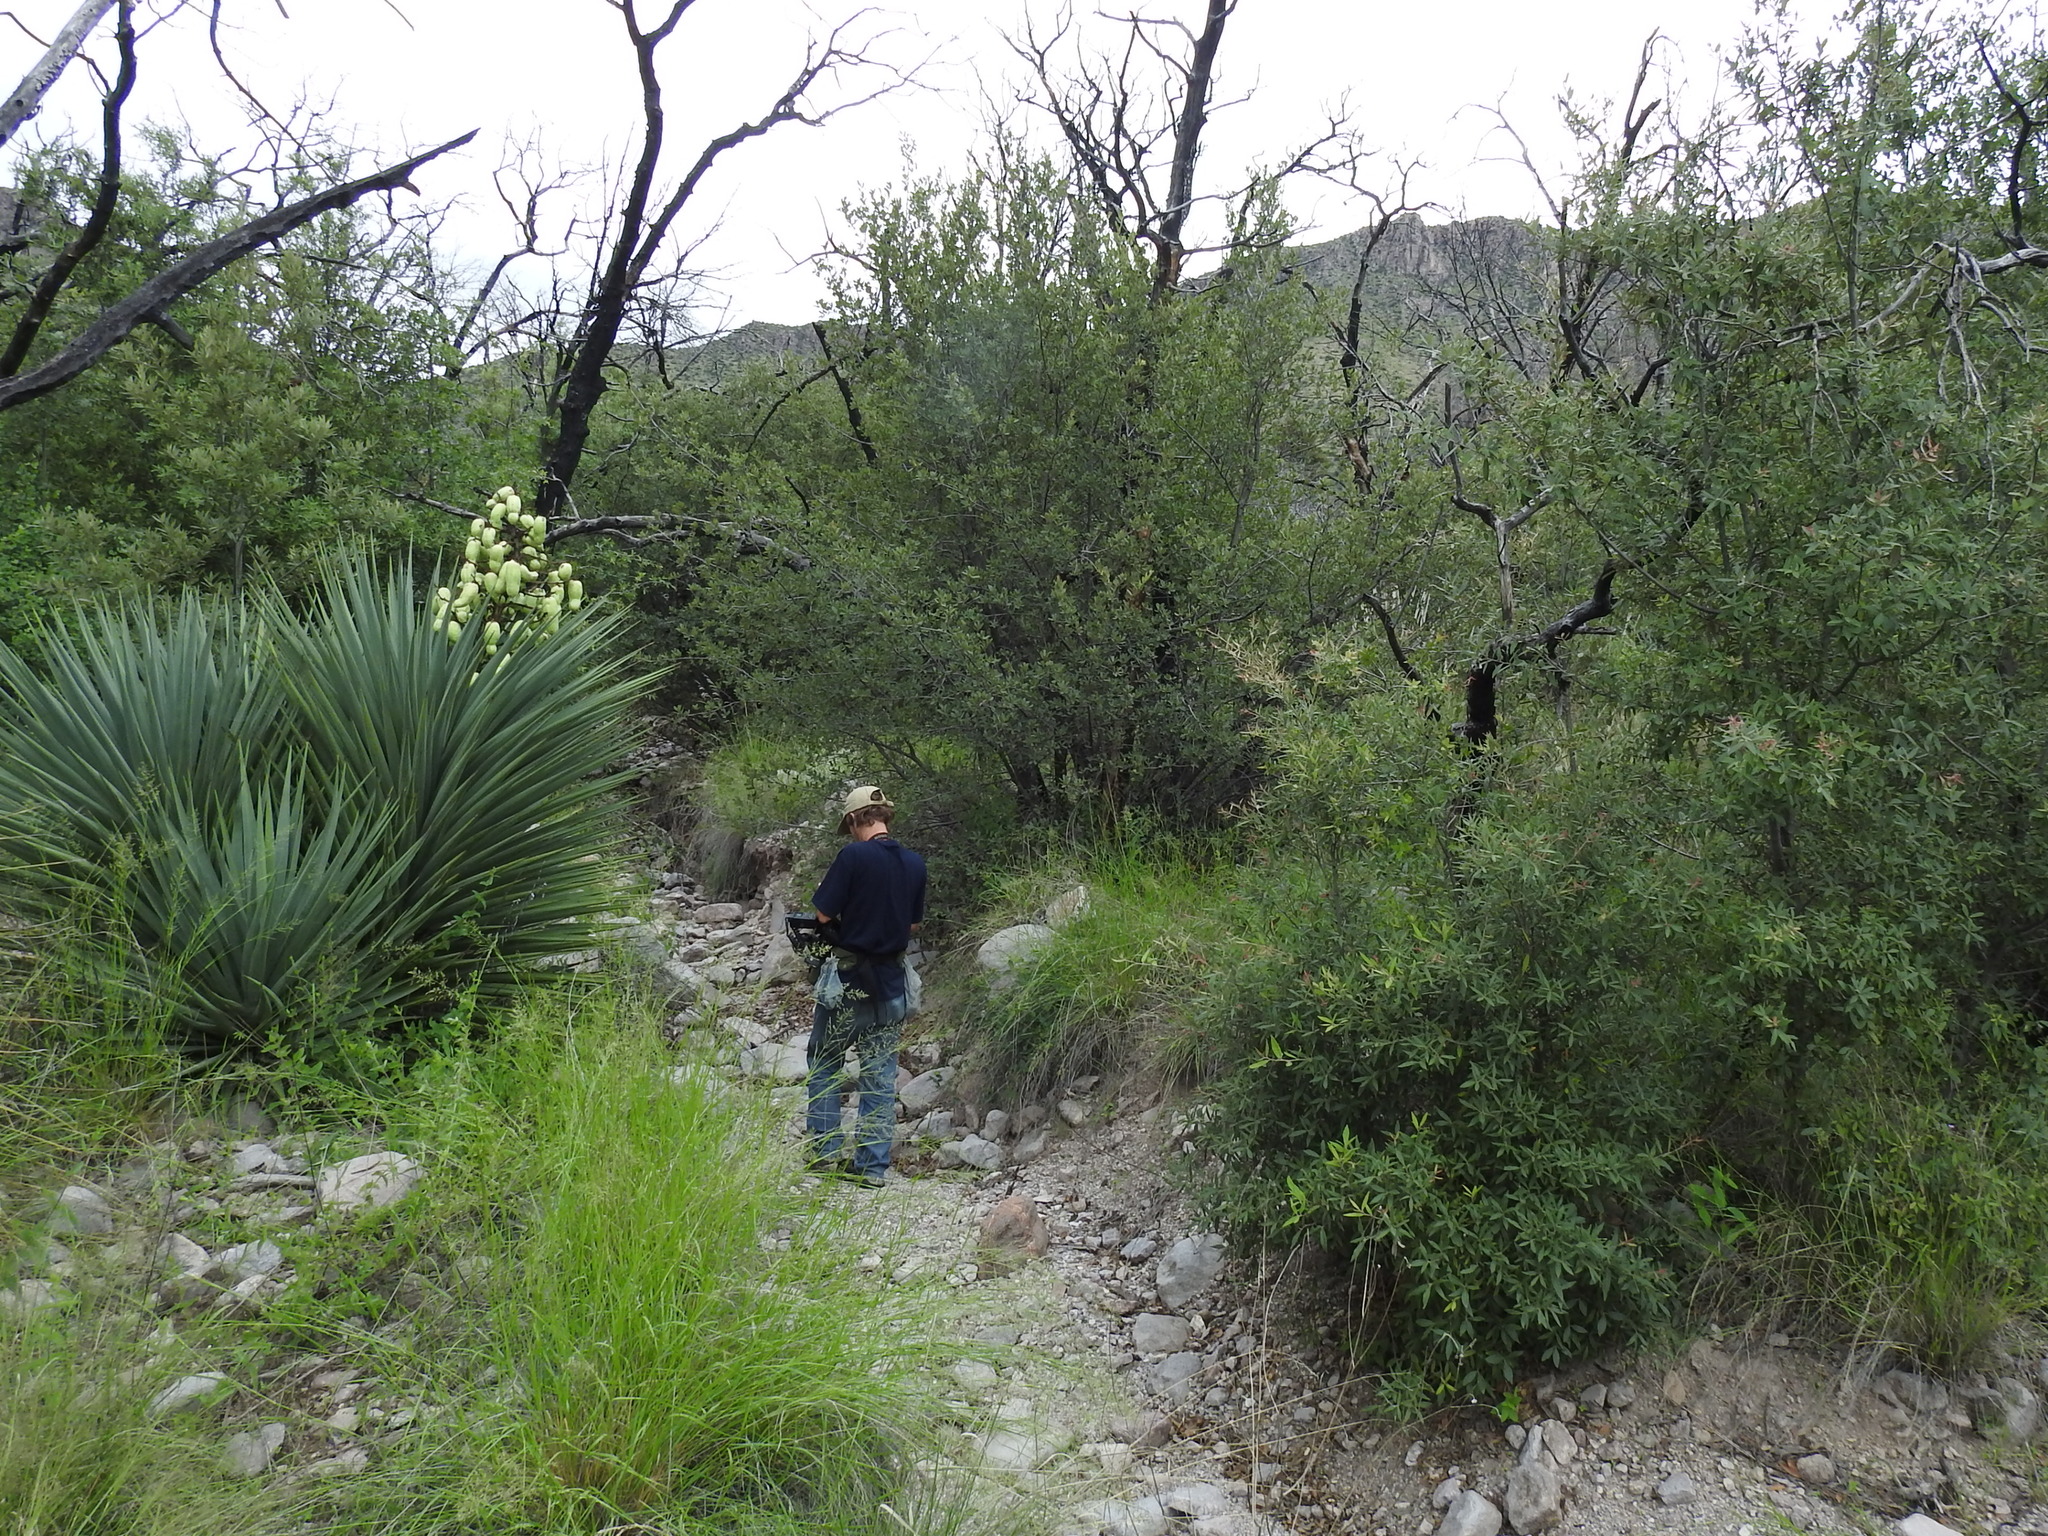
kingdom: Plantae
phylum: Tracheophyta
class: Liliopsida
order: Asparagales
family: Asparagaceae
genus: Yucca
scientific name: Yucca schottii
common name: Hoary yucca
